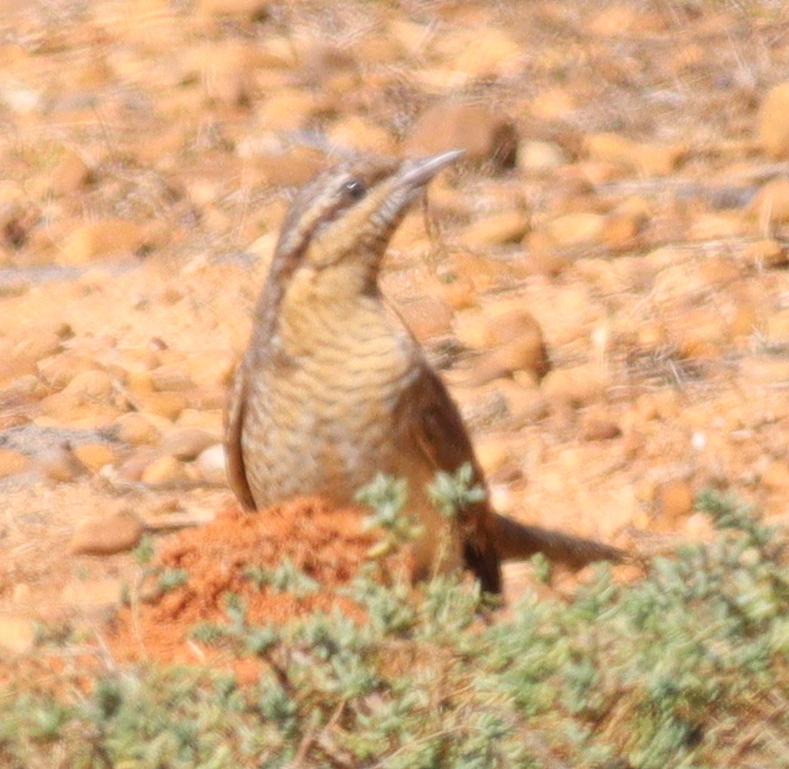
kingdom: Animalia
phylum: Chordata
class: Aves
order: Piciformes
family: Picidae
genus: Jynx
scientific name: Jynx torquilla
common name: Eurasian wryneck
